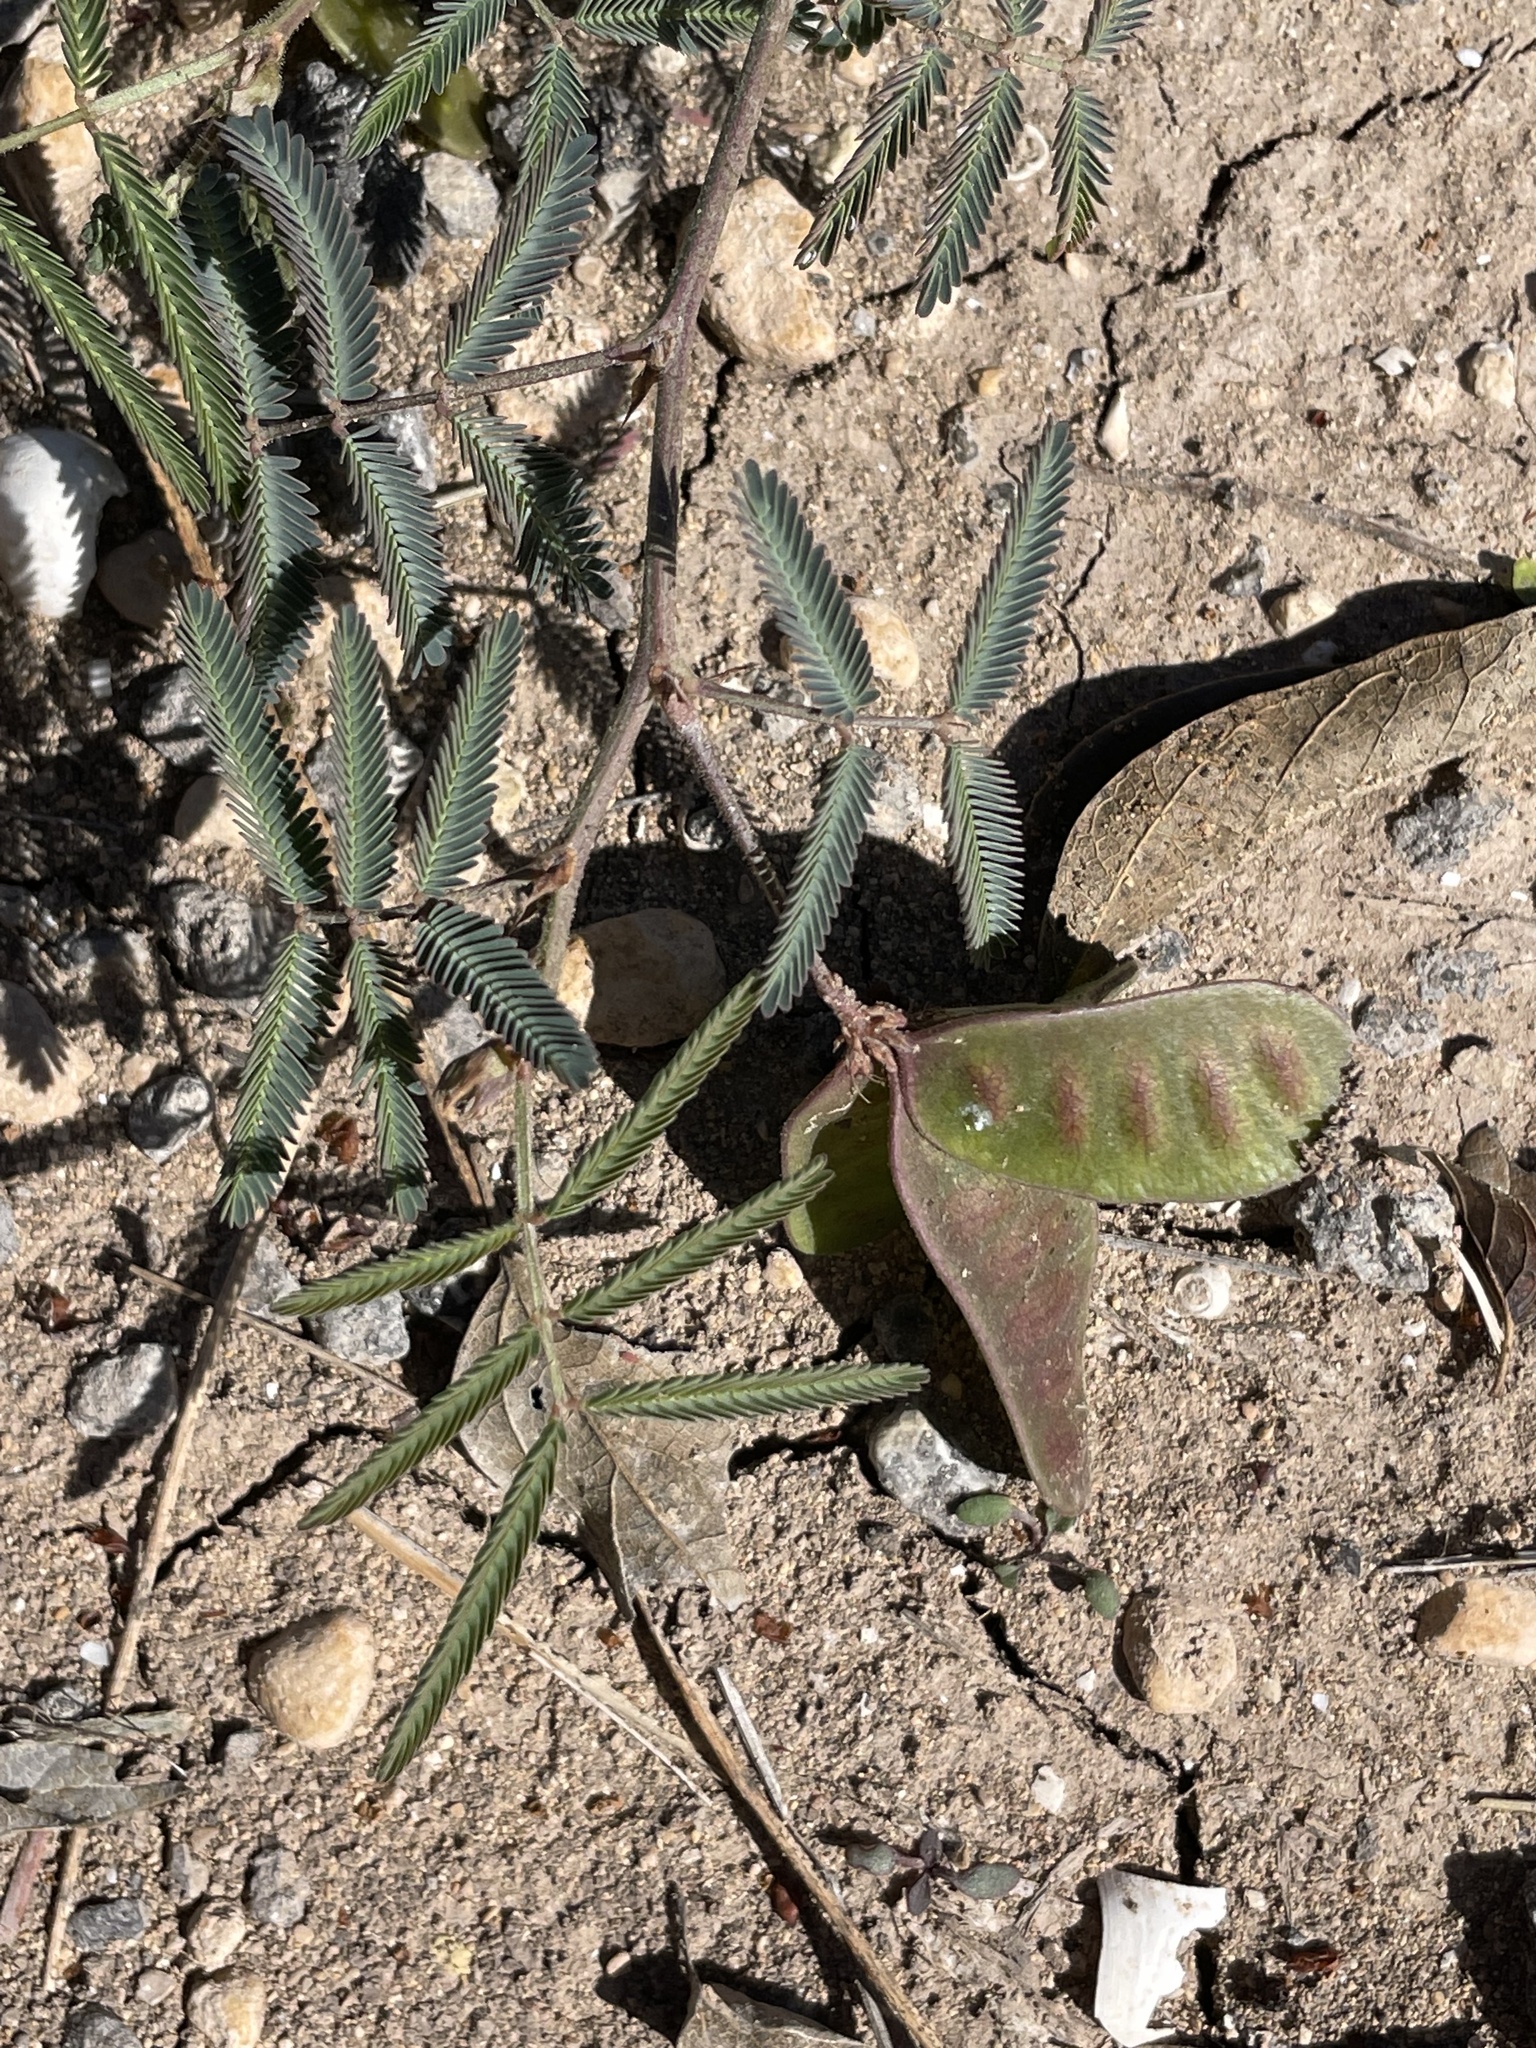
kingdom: Plantae
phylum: Tracheophyta
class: Magnoliopsida
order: Fabales
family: Fabaceae
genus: Neptunia
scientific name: Neptunia pubescens
